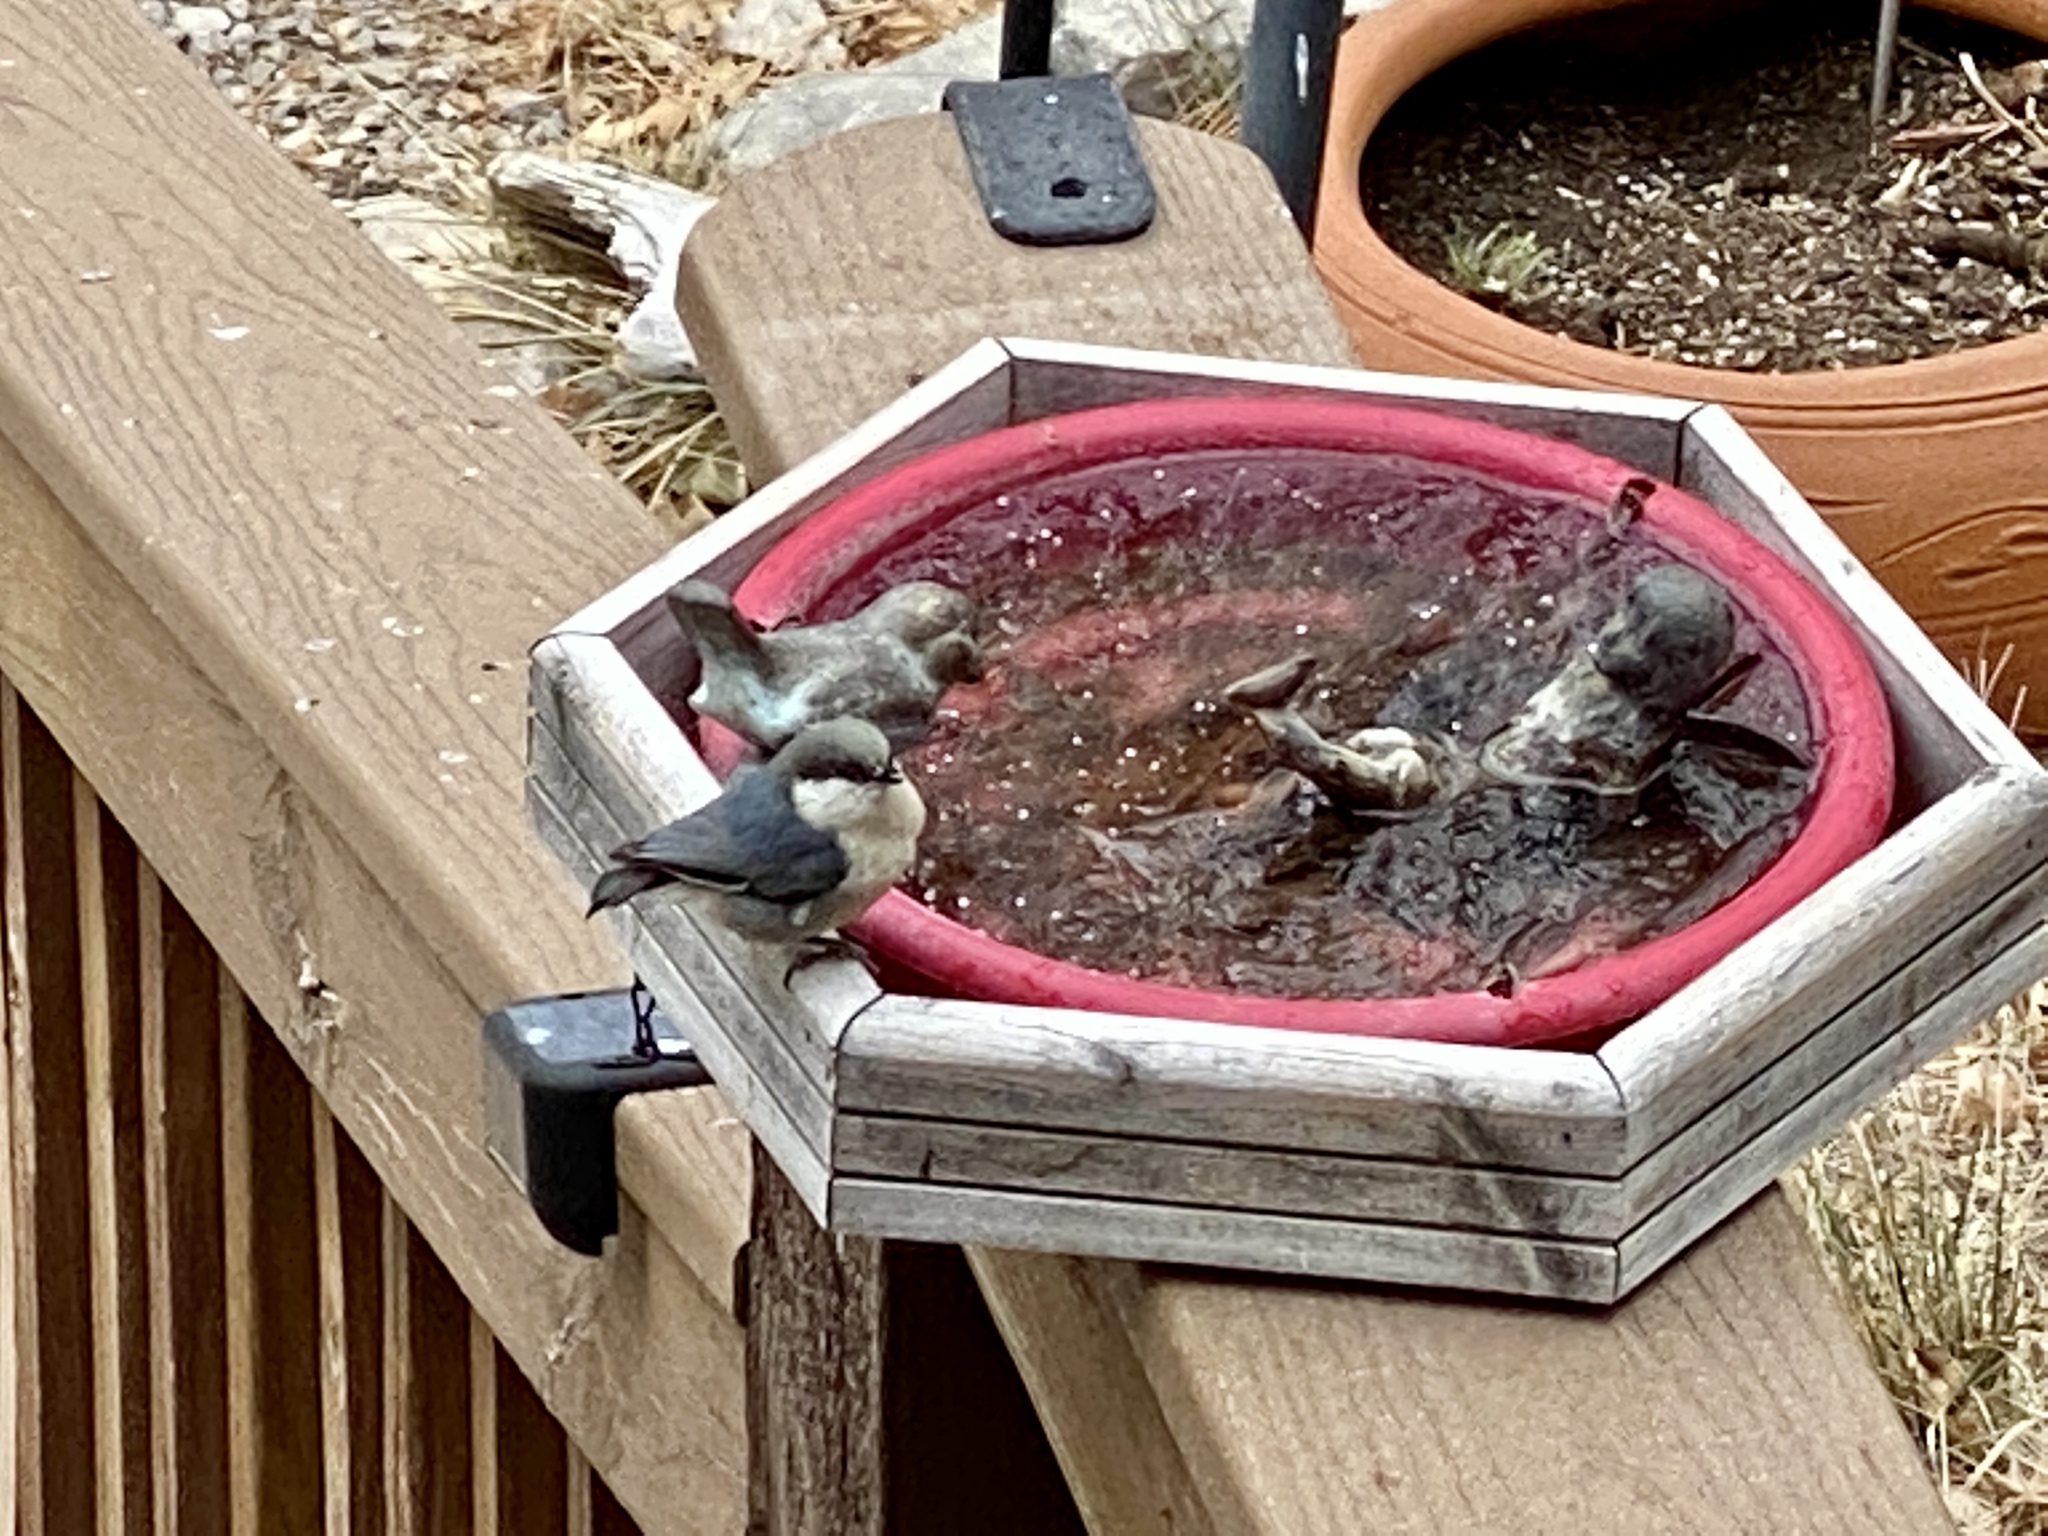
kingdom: Animalia
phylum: Chordata
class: Aves
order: Passeriformes
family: Sittidae
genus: Sitta
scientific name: Sitta pygmaea
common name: Pygmy nuthatch
